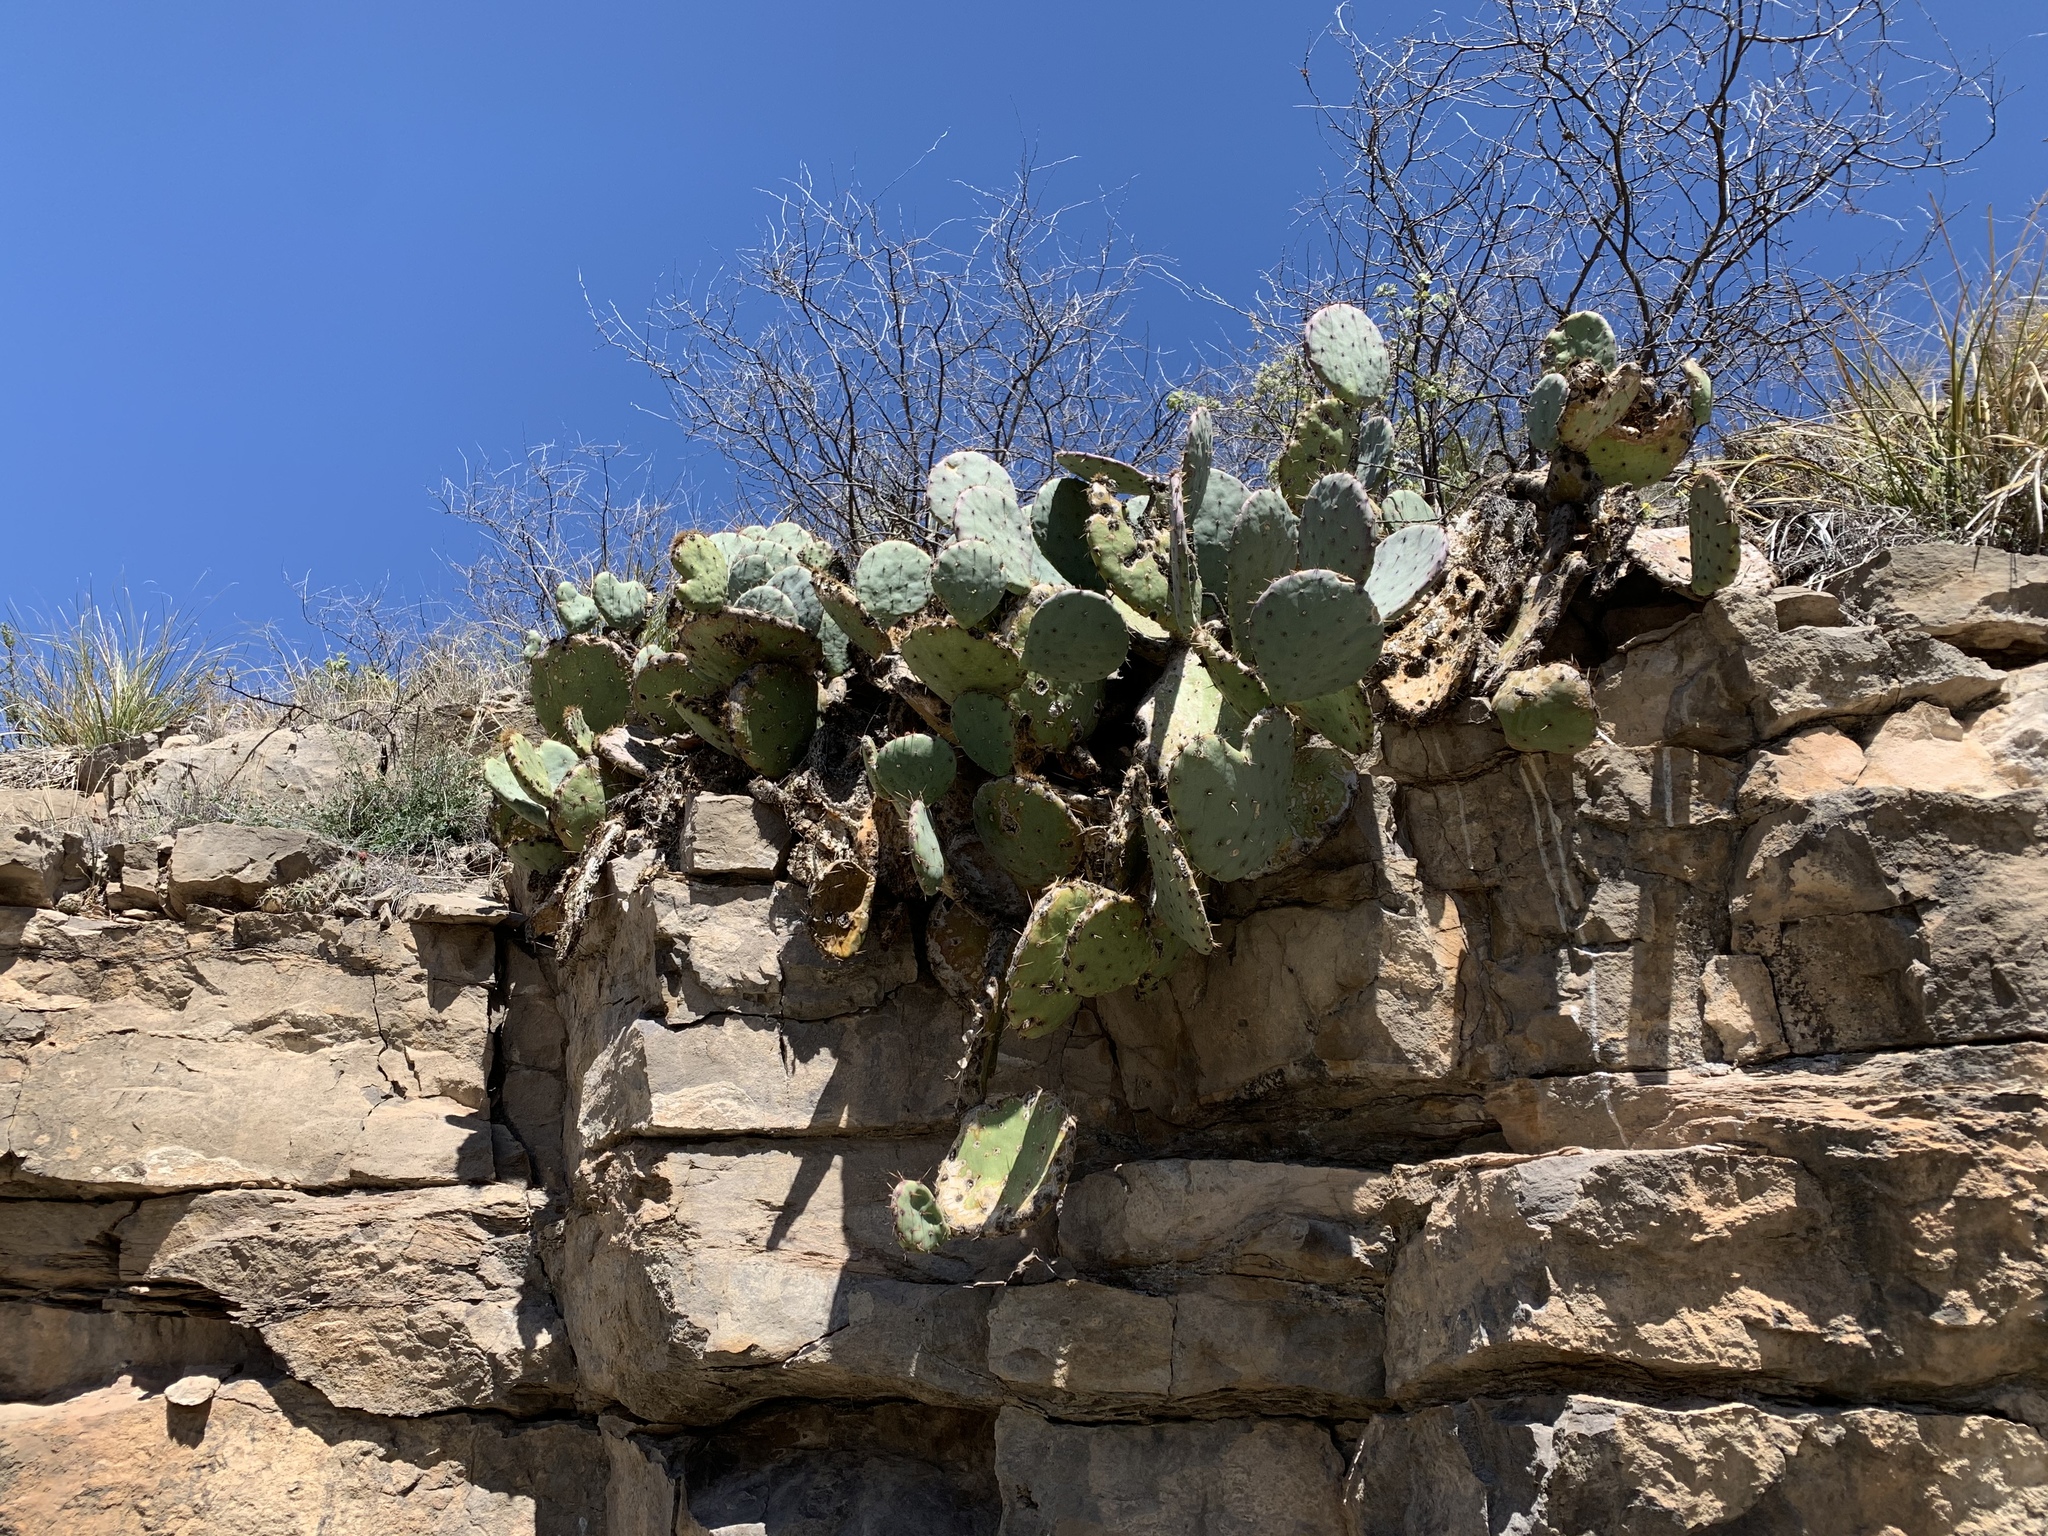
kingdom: Plantae
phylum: Tracheophyta
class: Magnoliopsida
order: Caryophyllales
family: Cactaceae
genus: Opuntia
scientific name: Opuntia engelmannii
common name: Cactus-apple
